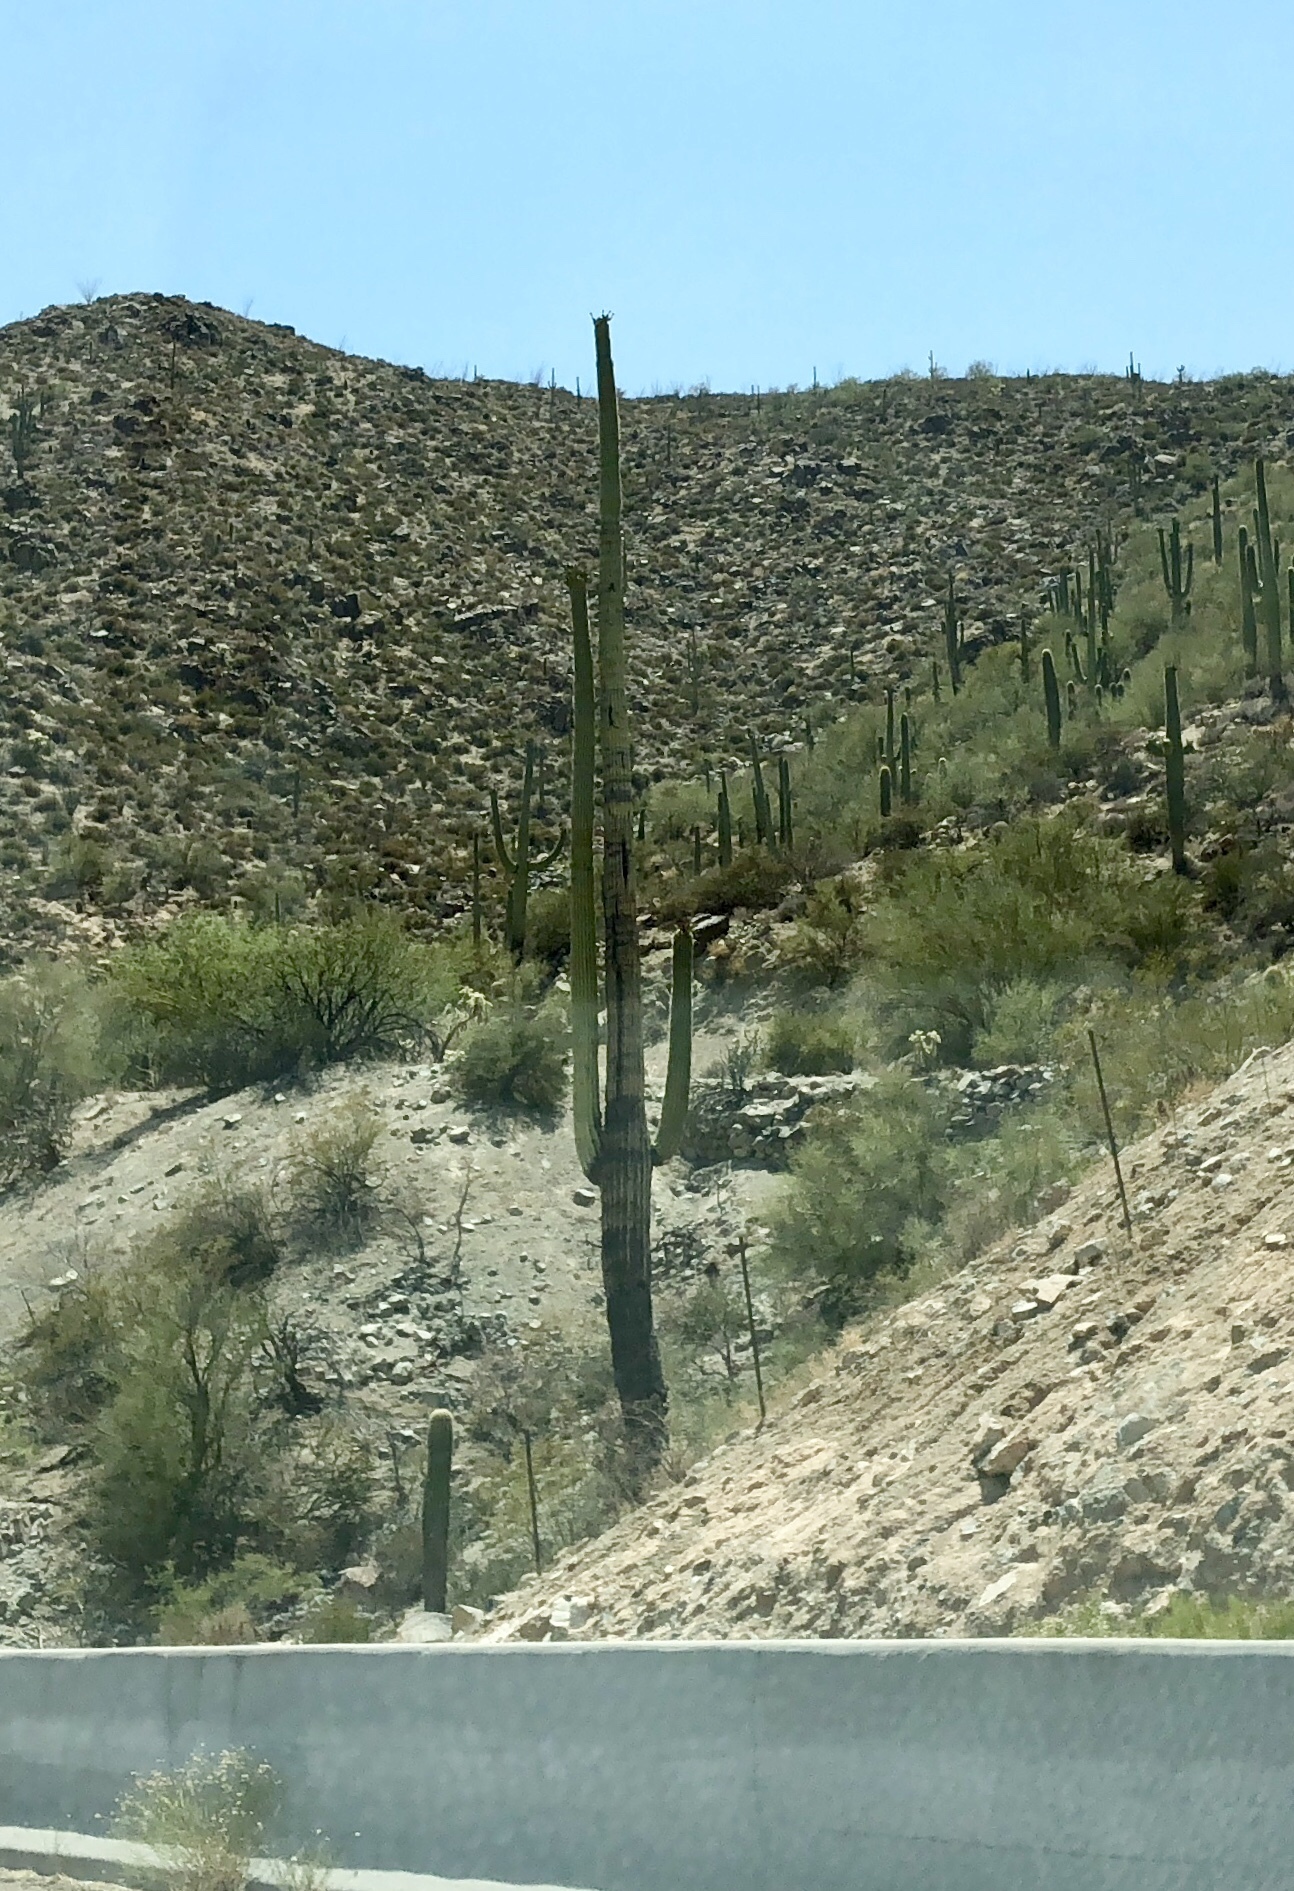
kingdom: Plantae
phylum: Tracheophyta
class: Magnoliopsida
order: Caryophyllales
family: Cactaceae
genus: Carnegiea
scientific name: Carnegiea gigantea
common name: Saguaro
